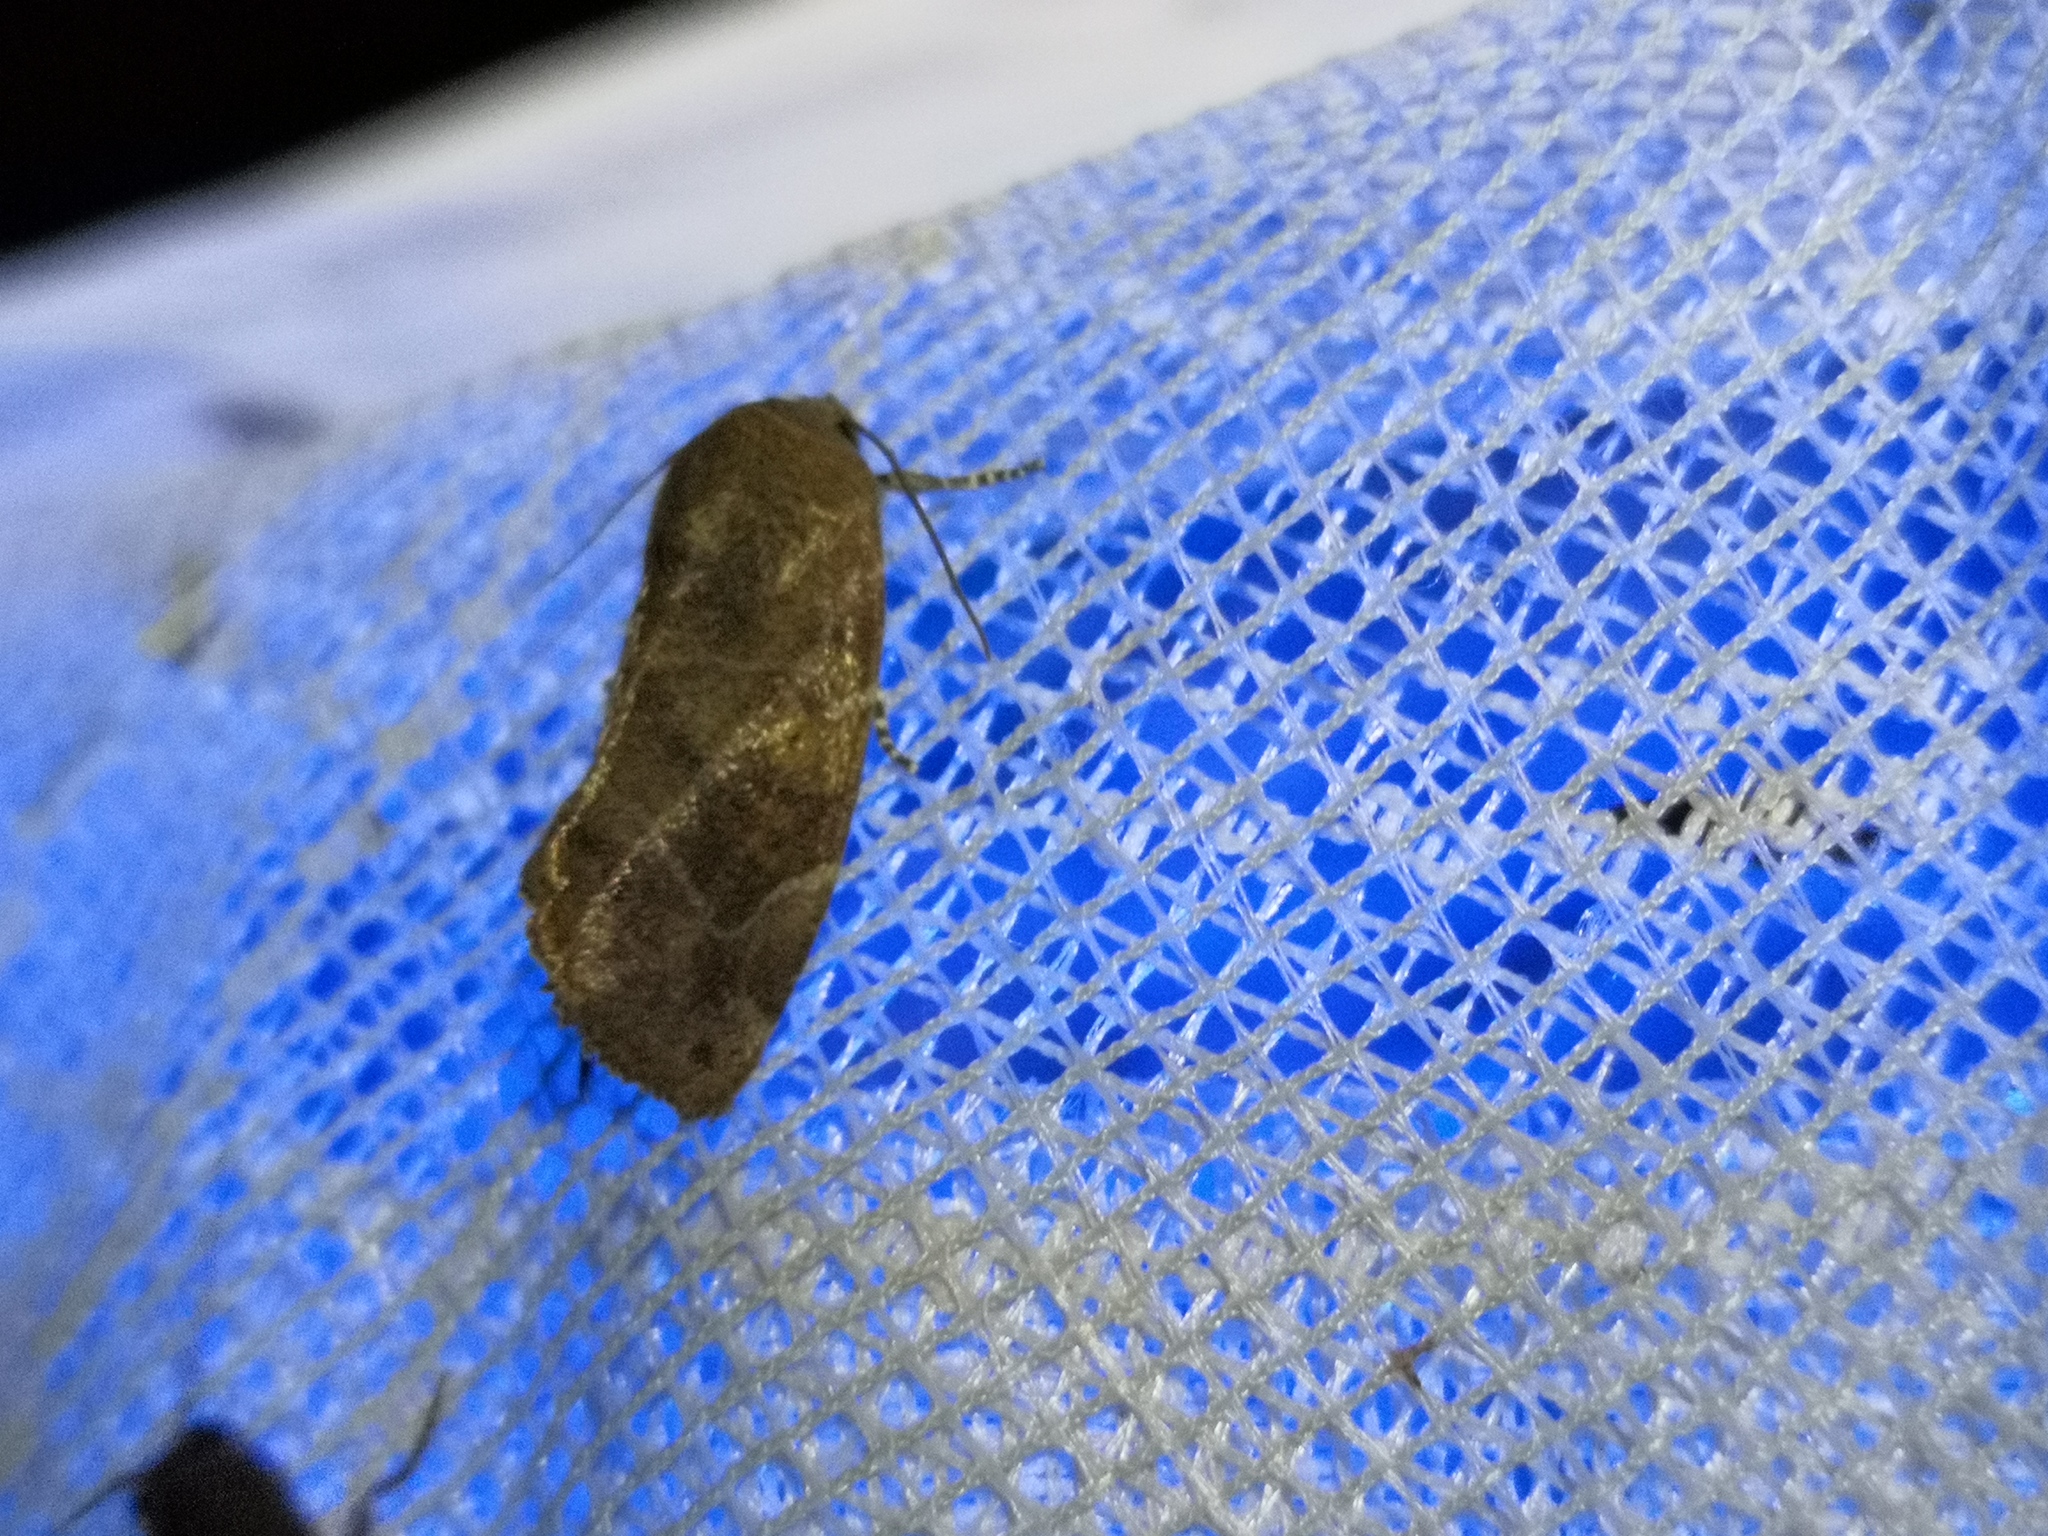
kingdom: Animalia
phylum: Arthropoda
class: Insecta
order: Lepidoptera
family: Noctuidae
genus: Cosmia
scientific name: Cosmia affinis
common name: Lesser-spotted pinion
